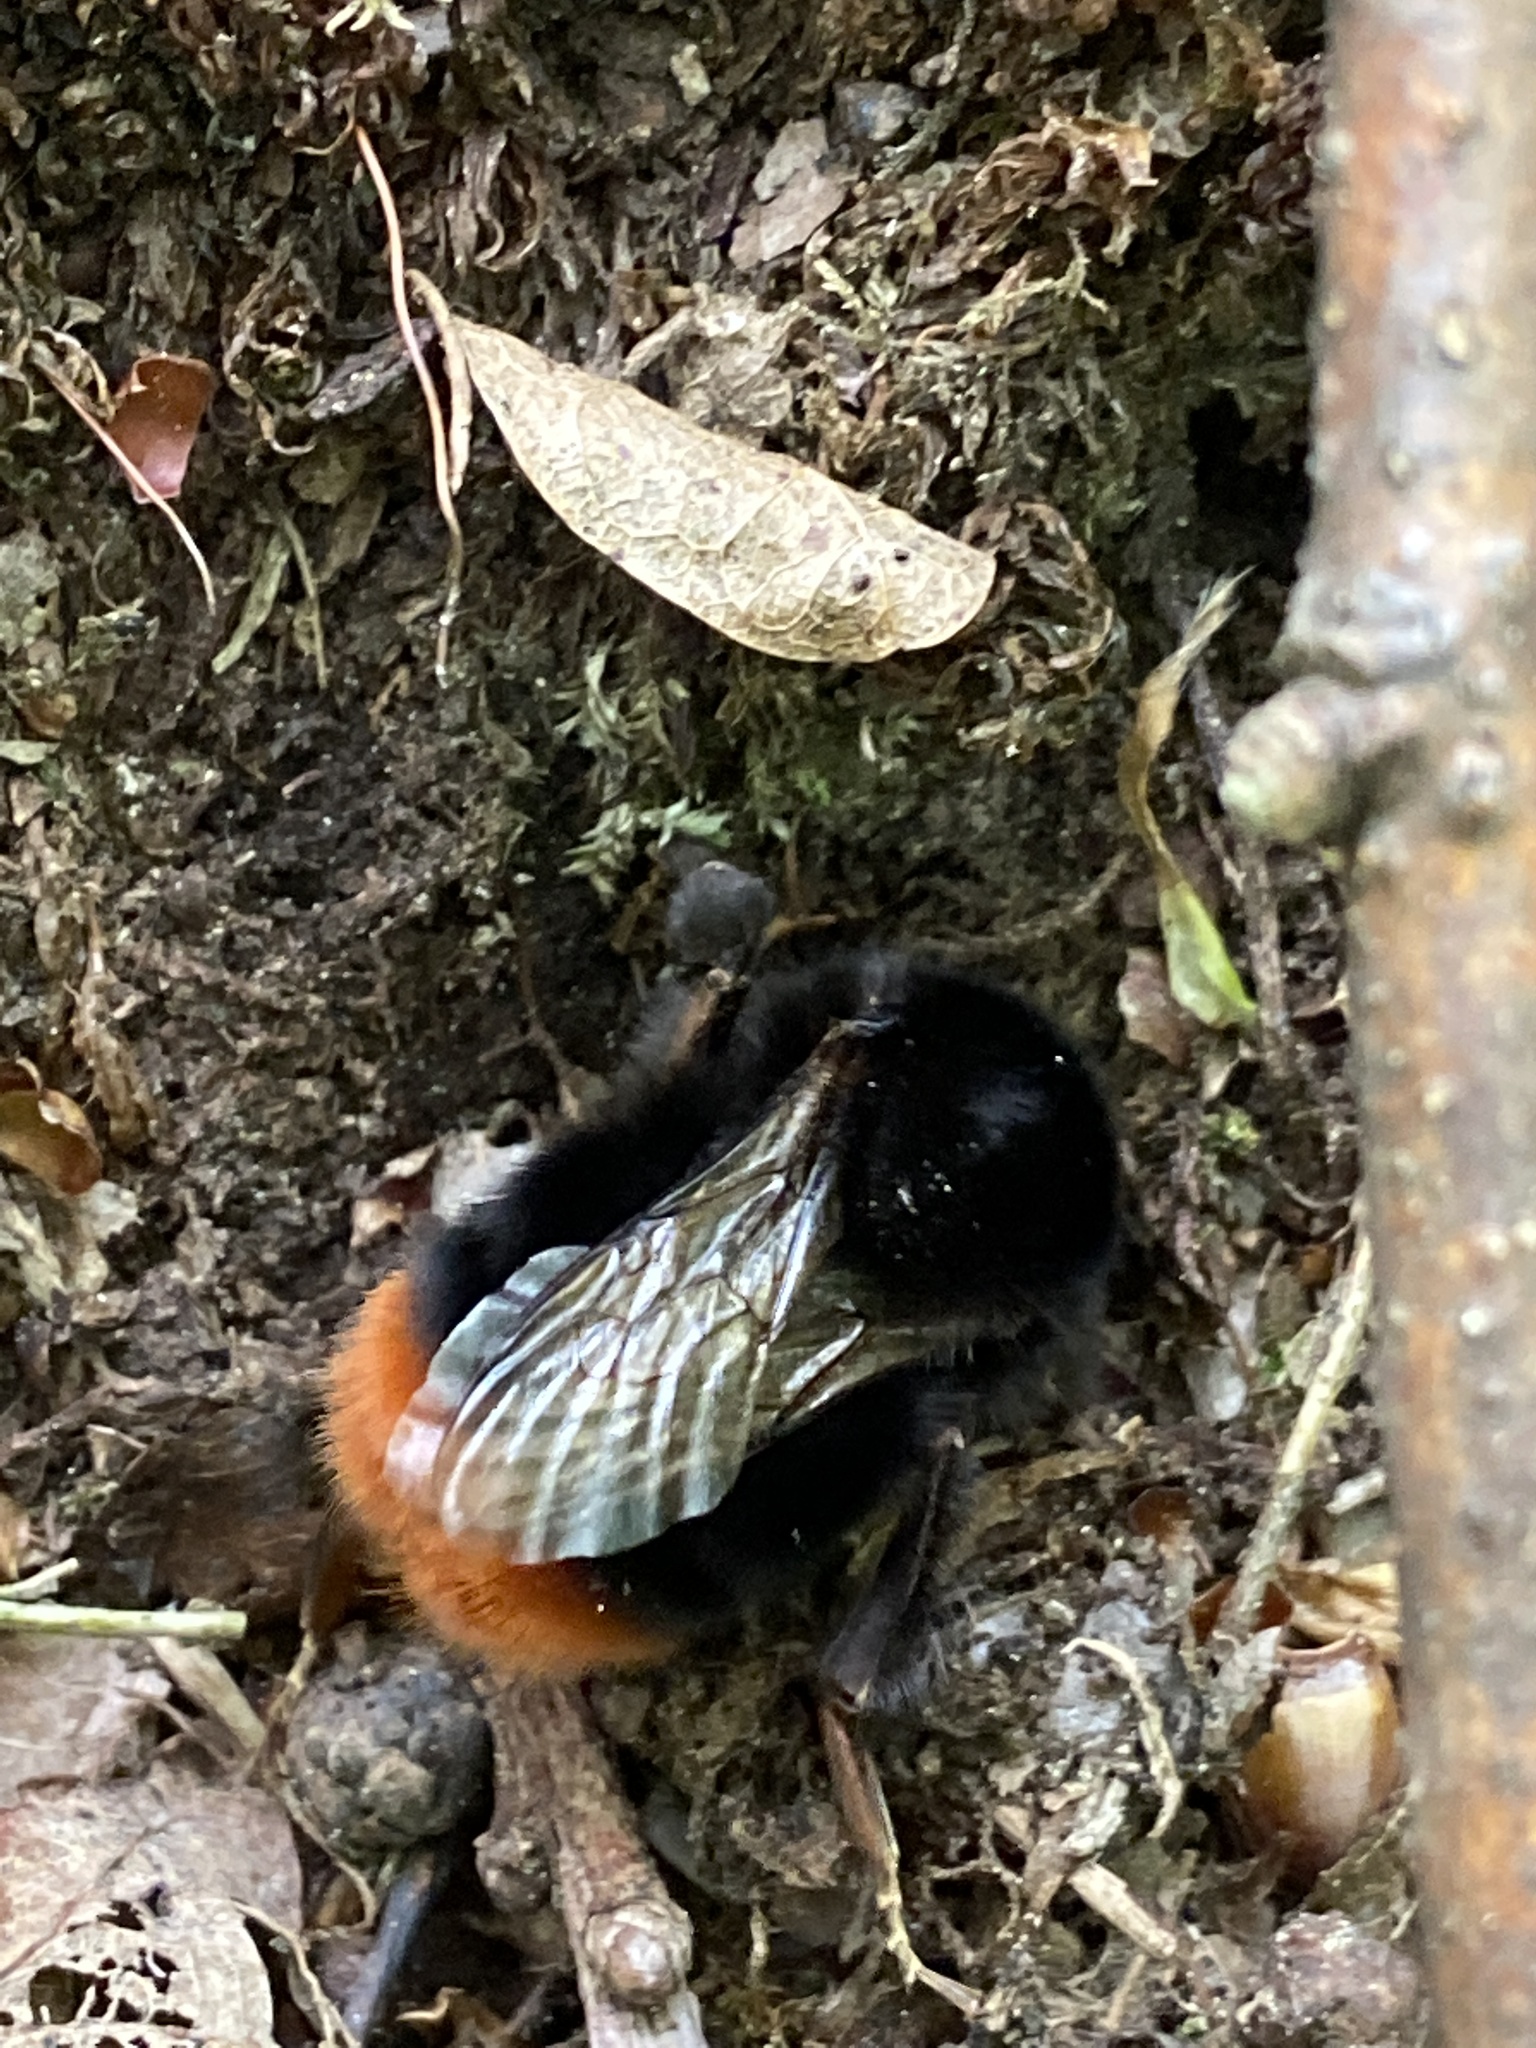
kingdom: Animalia
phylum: Arthropoda
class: Insecta
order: Hymenoptera
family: Apidae
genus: Bombus
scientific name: Bombus lapidarius
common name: Large red-tailed humble-bee
